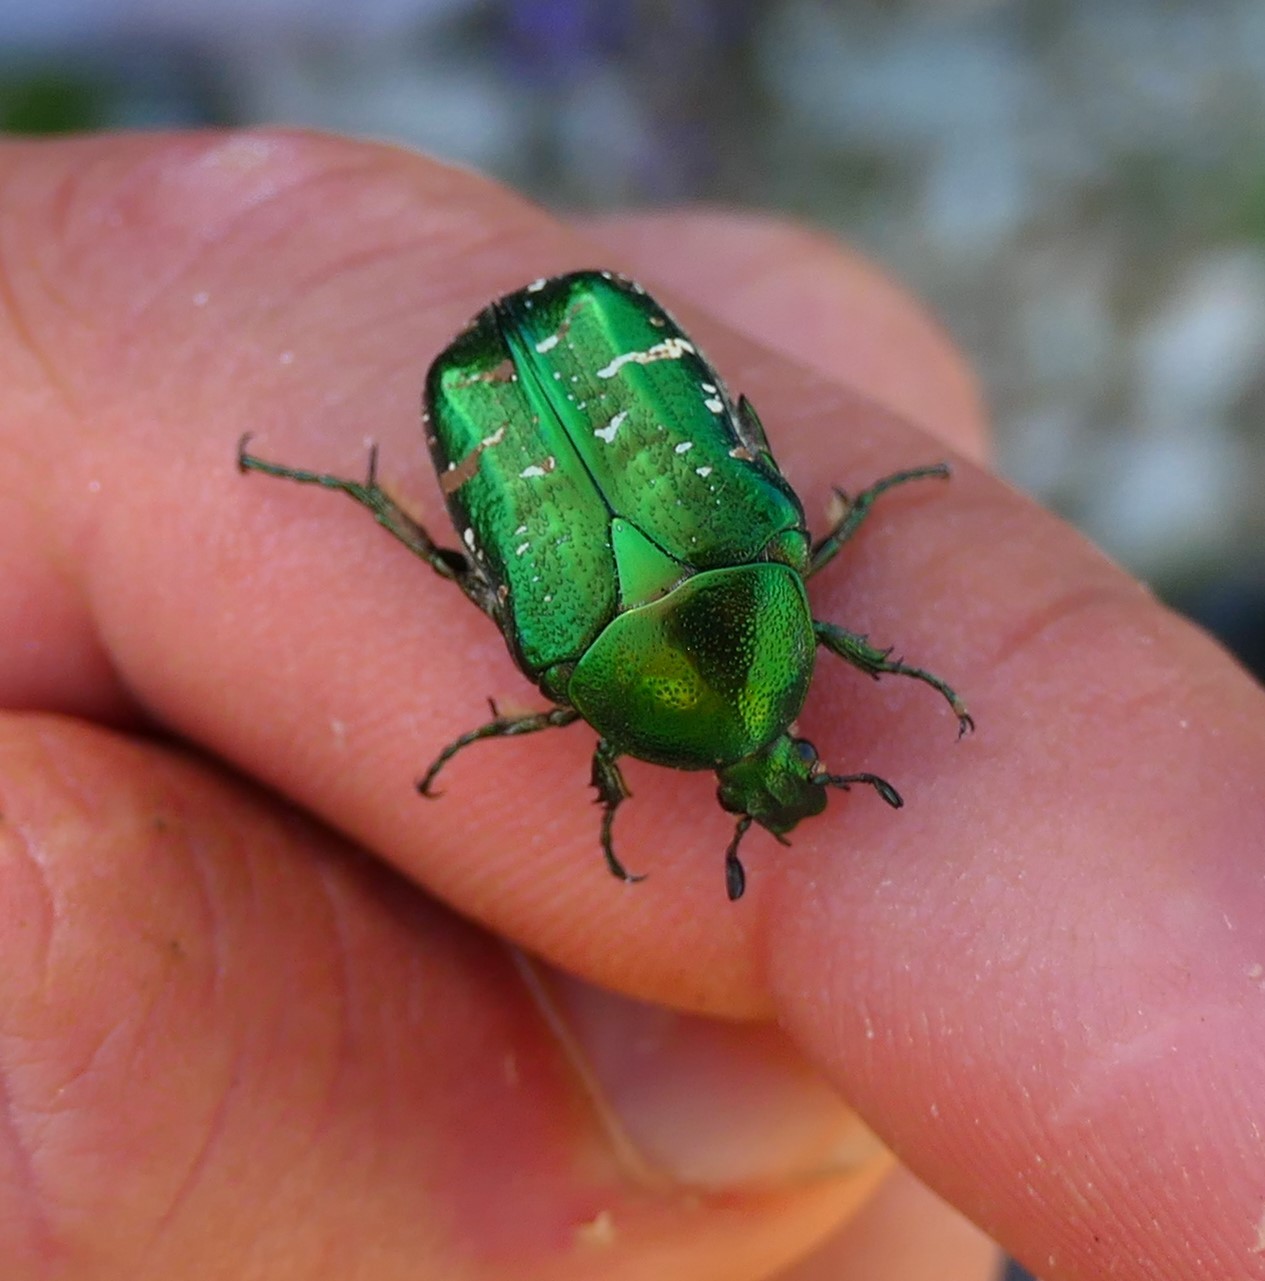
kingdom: Animalia
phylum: Arthropoda
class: Insecta
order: Coleoptera
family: Scarabaeidae
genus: Cetonia
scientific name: Cetonia aurata
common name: Rose chafer
